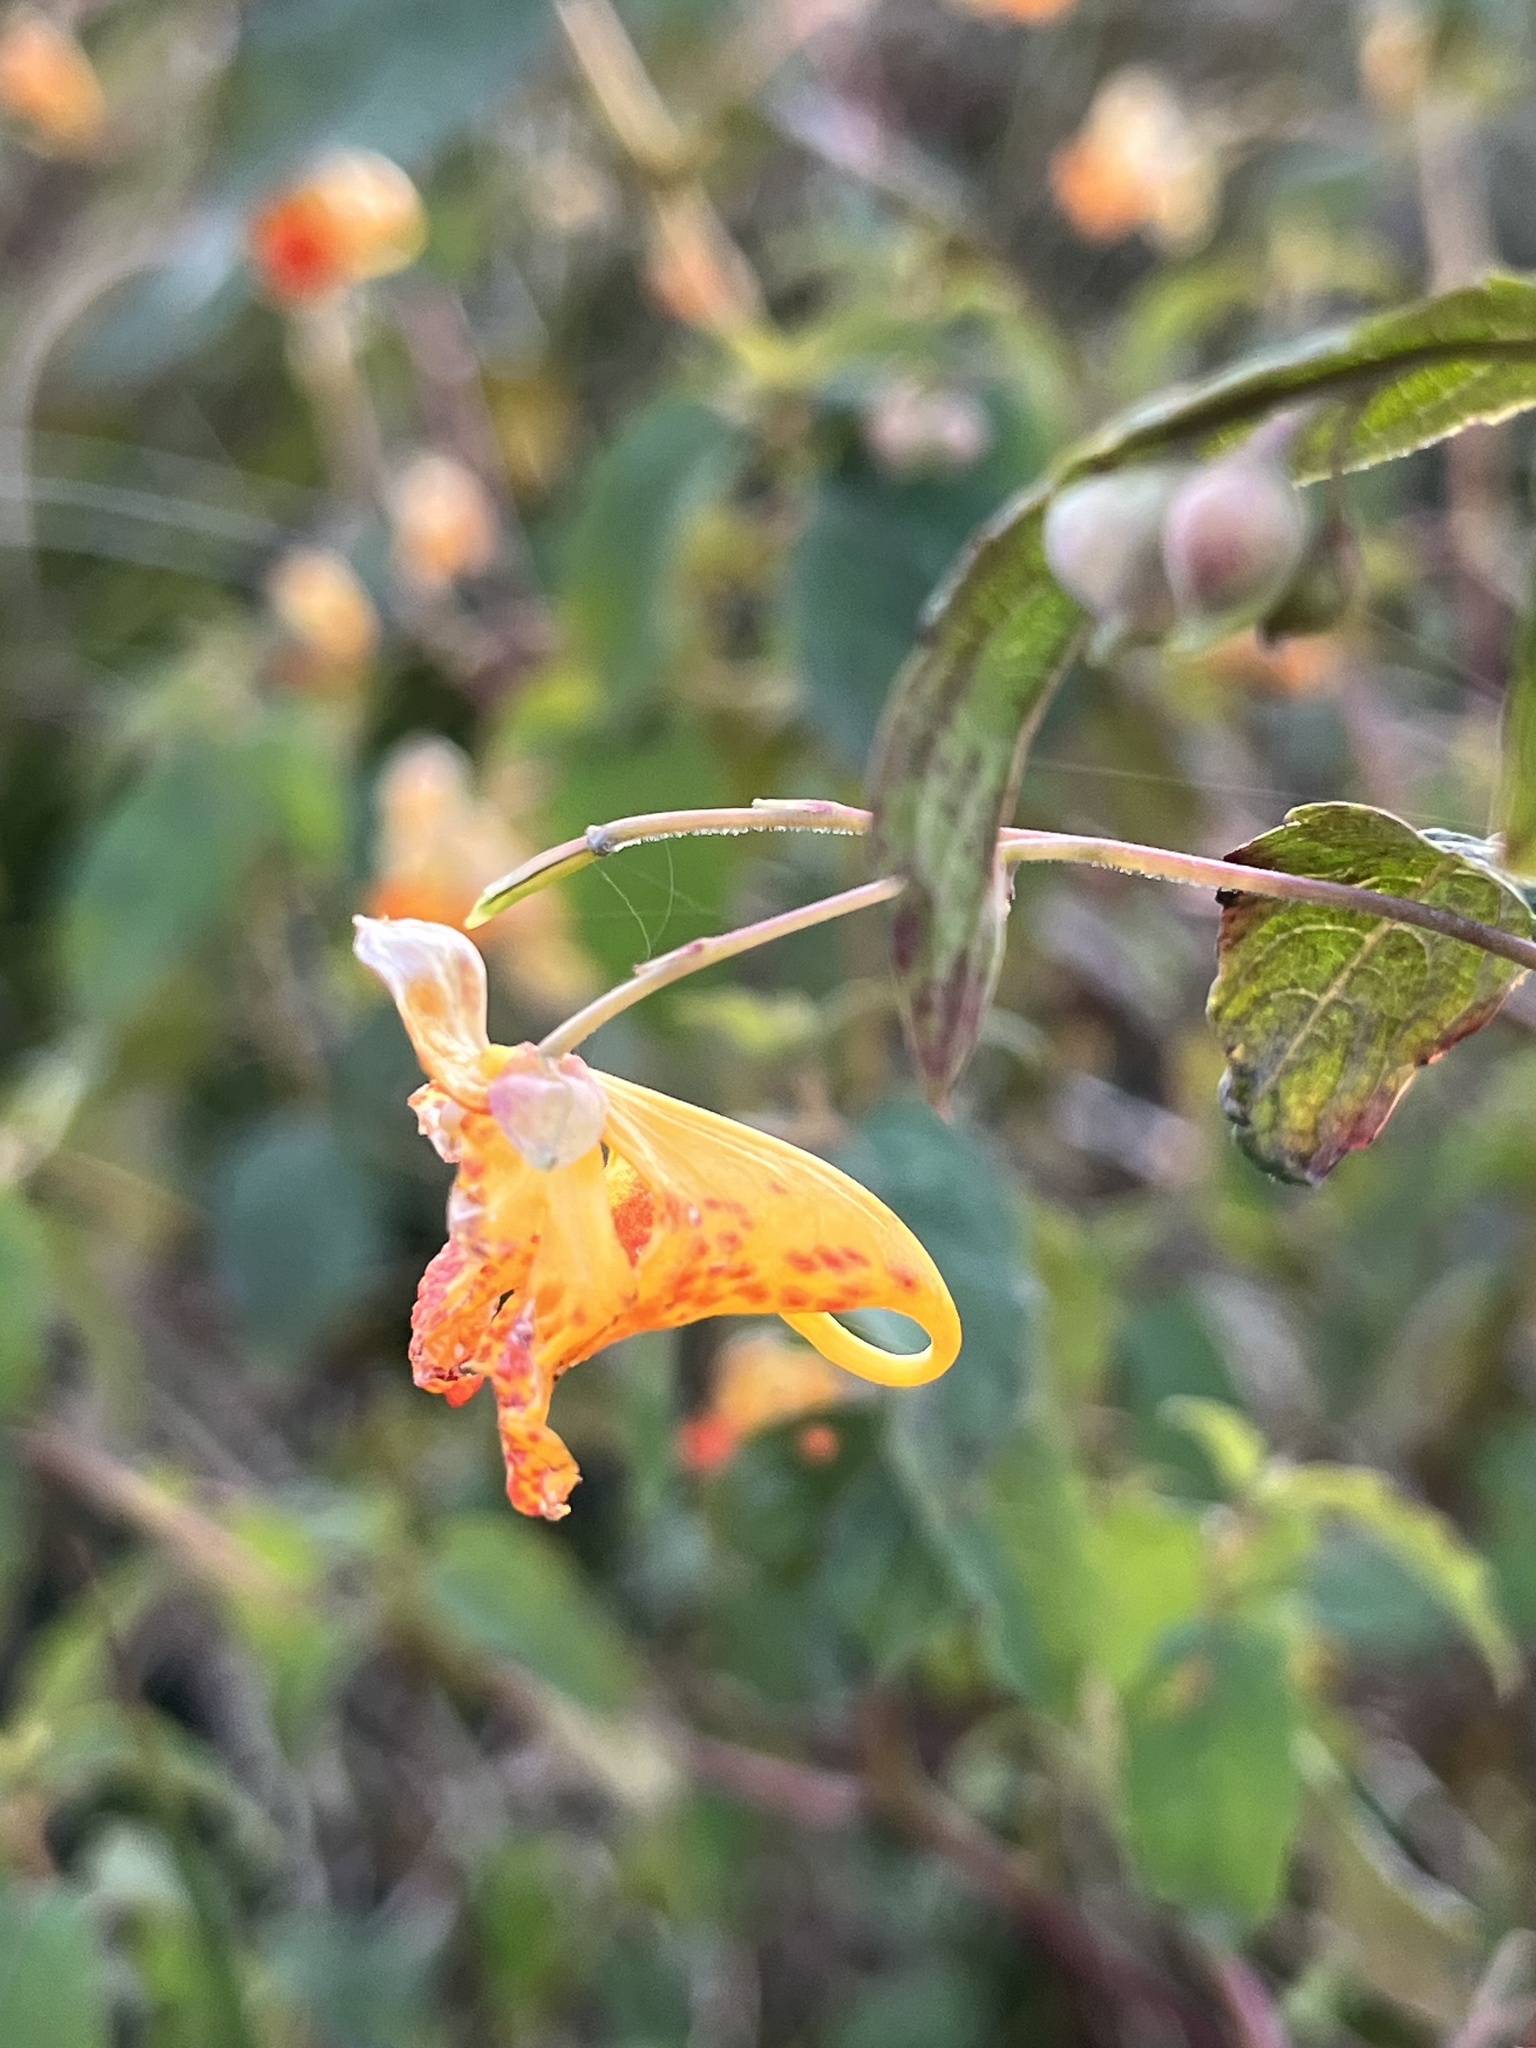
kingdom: Plantae
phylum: Tracheophyta
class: Magnoliopsida
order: Ericales
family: Balsaminaceae
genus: Impatiens
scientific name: Impatiens capensis
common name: Orange balsam
